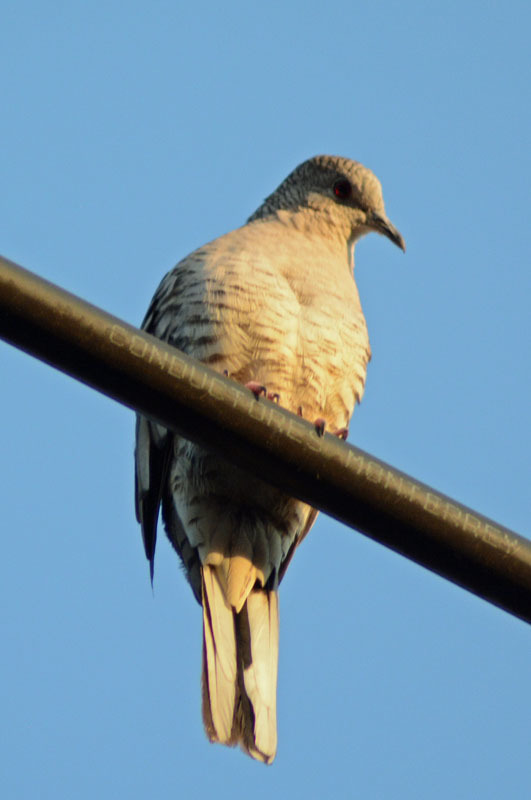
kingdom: Animalia
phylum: Chordata
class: Aves
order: Columbiformes
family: Columbidae
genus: Columbina
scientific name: Columbina inca
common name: Inca dove
